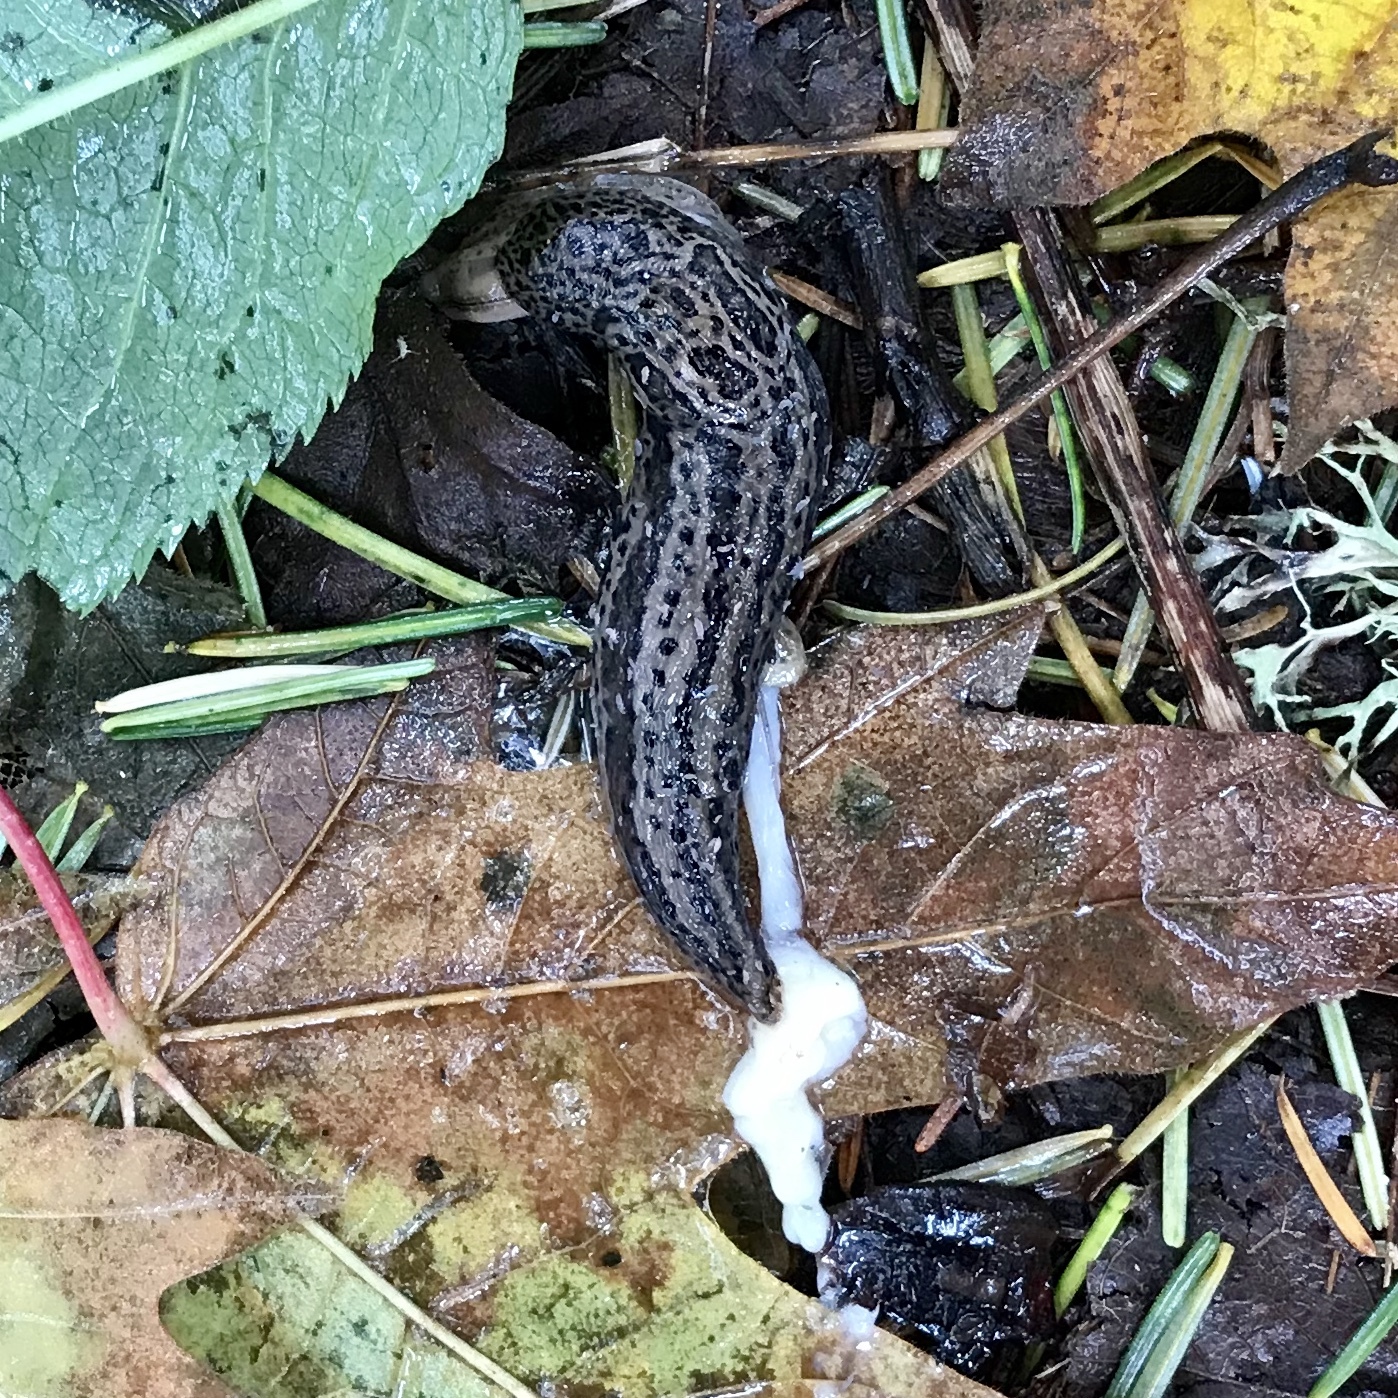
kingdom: Animalia
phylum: Mollusca
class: Gastropoda
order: Stylommatophora
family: Limacidae
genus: Limax
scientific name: Limax maximus
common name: Great grey slug
